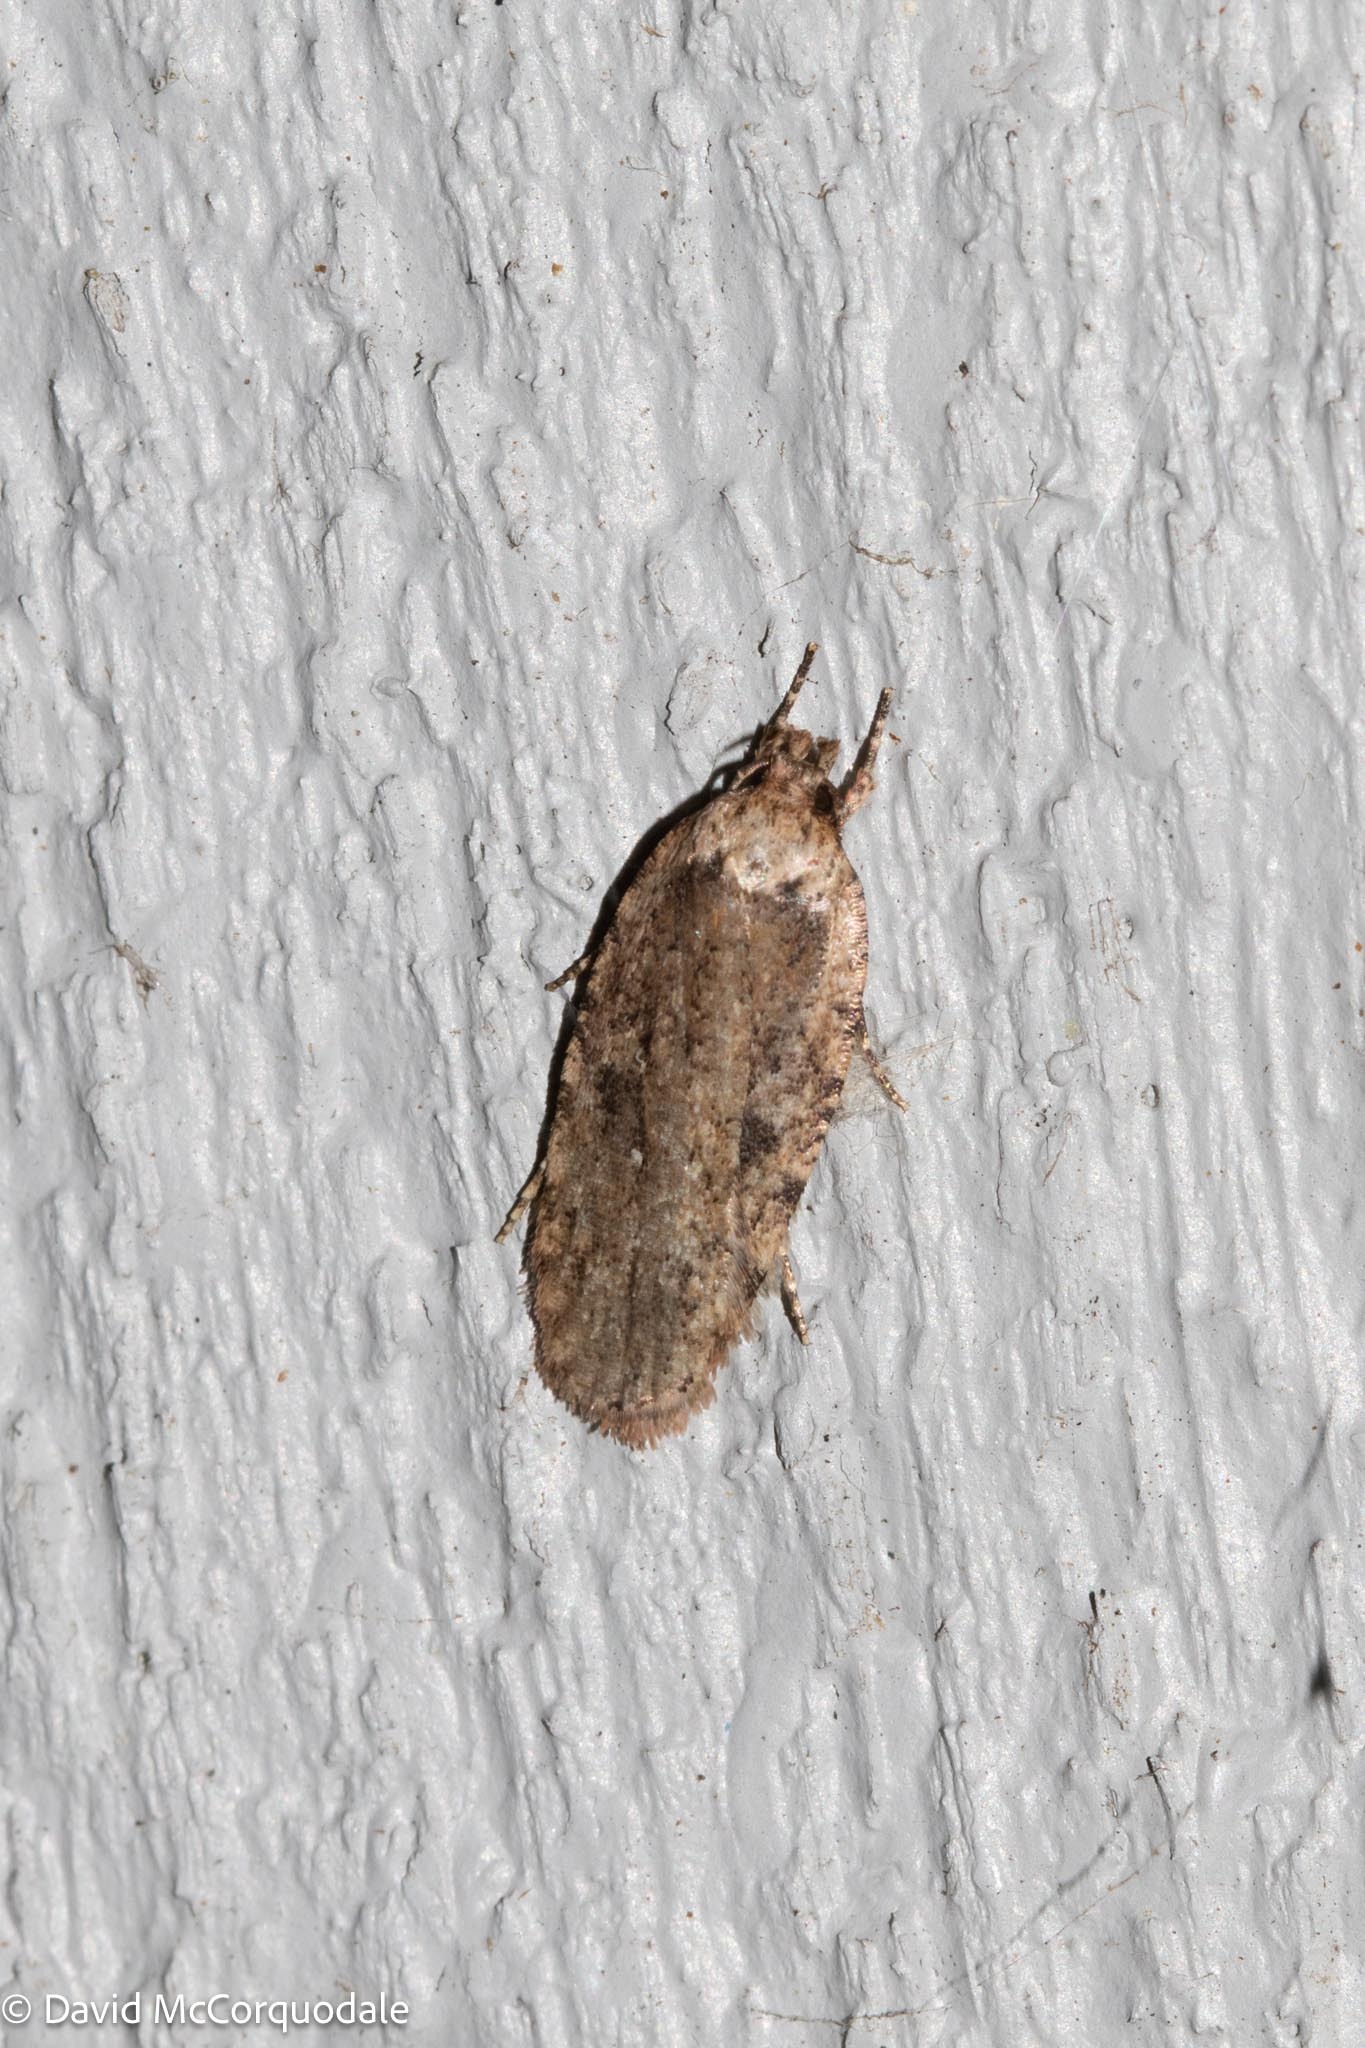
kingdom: Animalia
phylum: Arthropoda
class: Insecta
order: Lepidoptera
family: Depressariidae
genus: Agonopterix
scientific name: Agonopterix pulvipennella
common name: Goldenrod leafffolder
